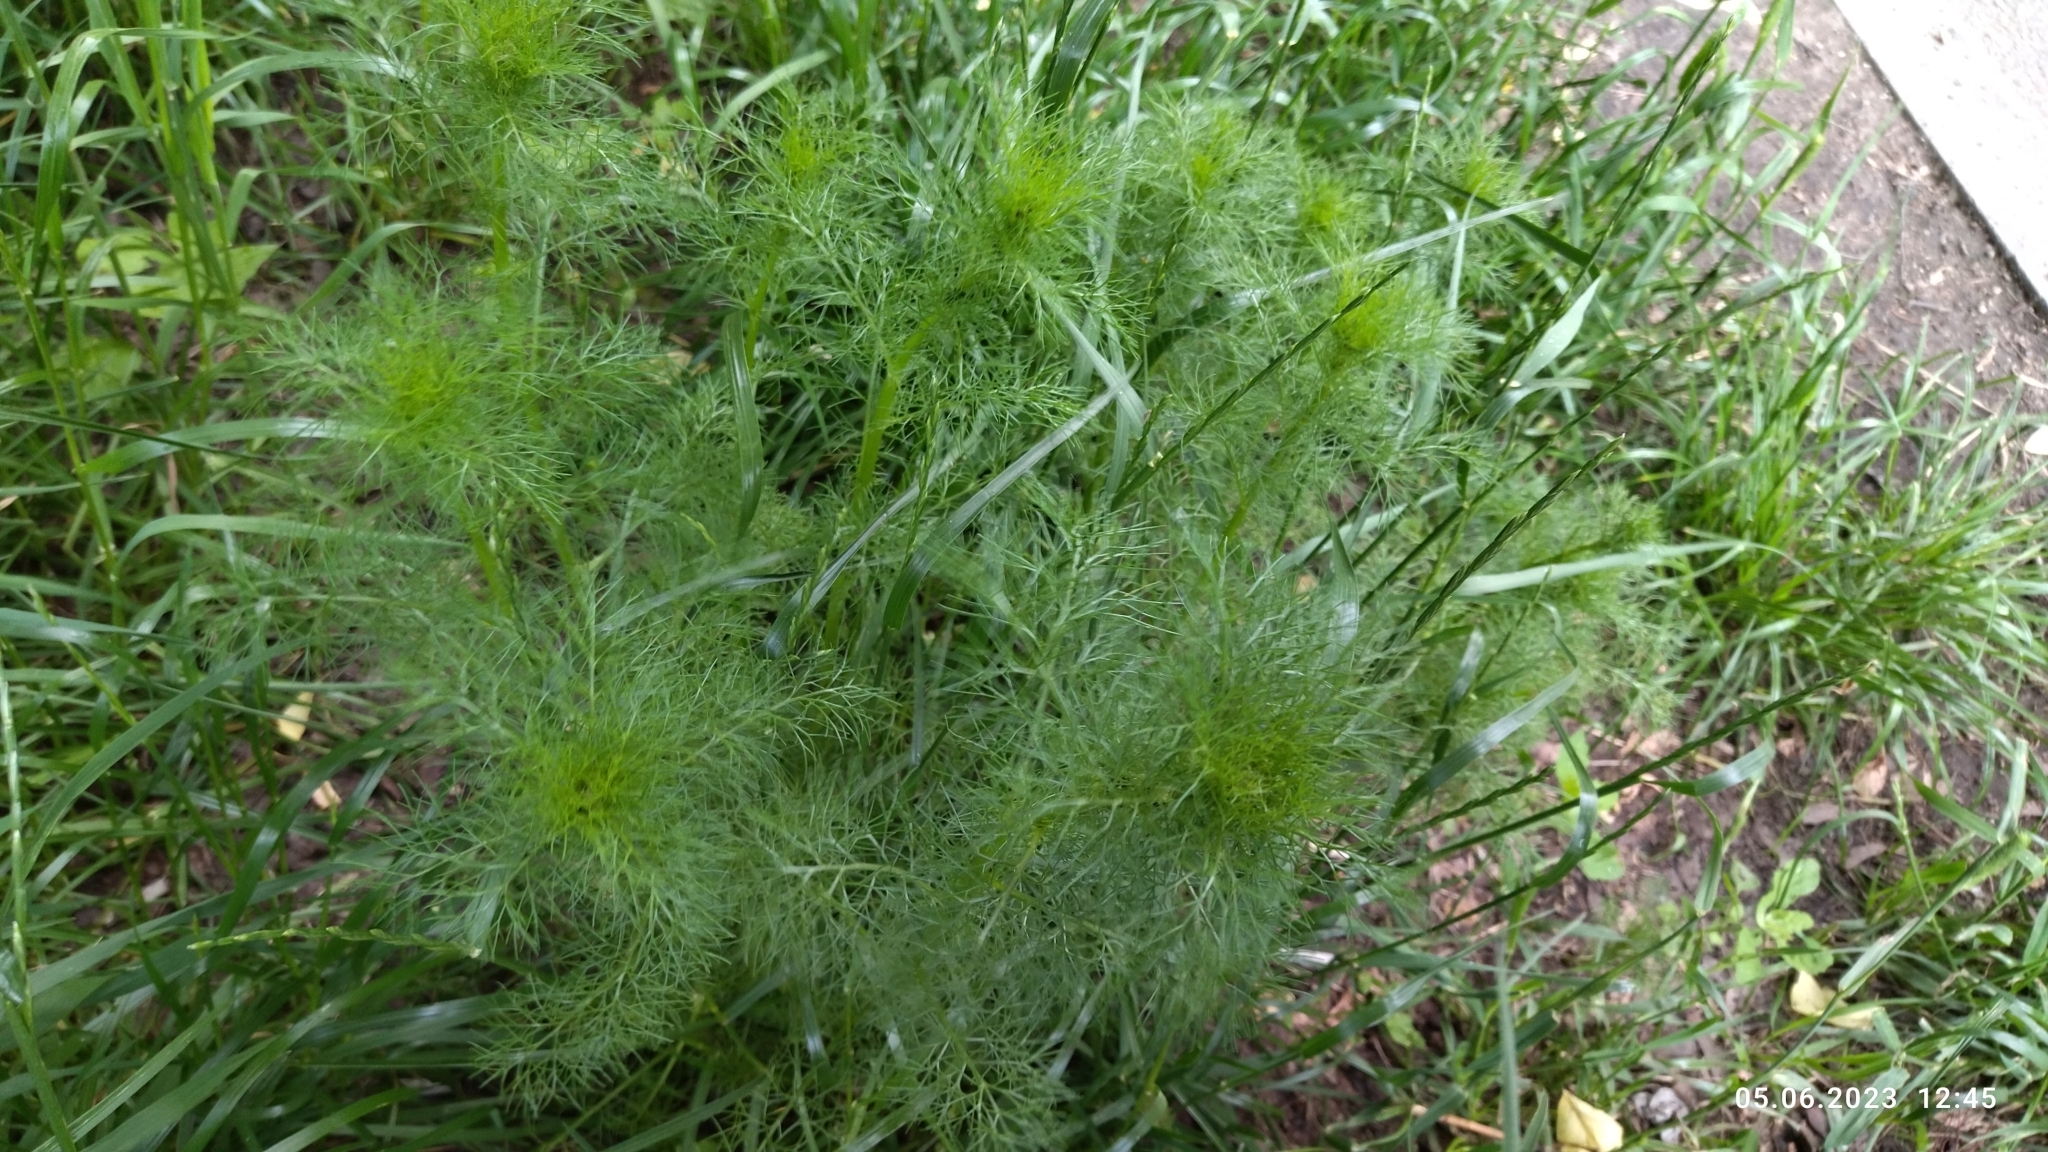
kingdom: Plantae
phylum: Tracheophyta
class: Magnoliopsida
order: Asterales
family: Asteraceae
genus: Tripleurospermum
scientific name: Tripleurospermum inodorum
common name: Scentless mayweed
